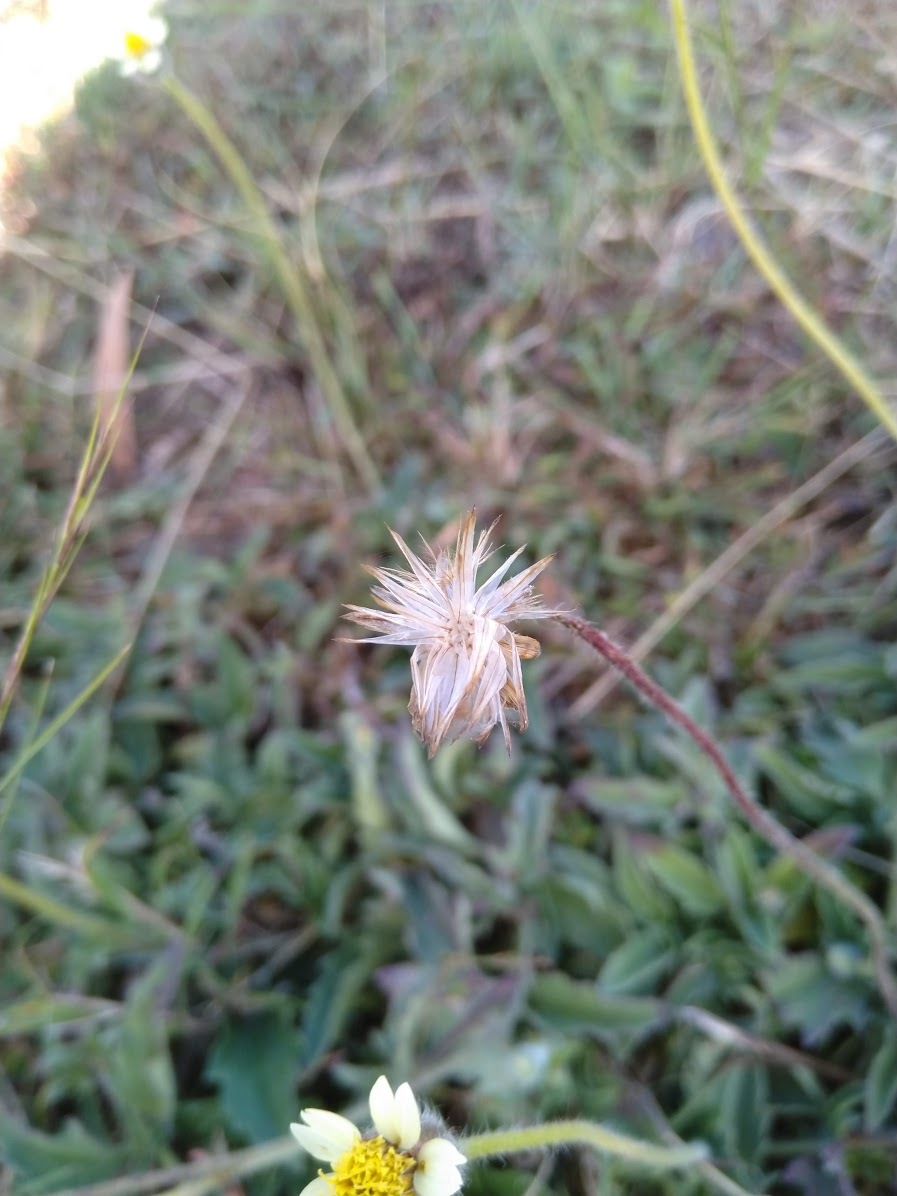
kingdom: Plantae
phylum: Tracheophyta
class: Magnoliopsida
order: Asterales
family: Asteraceae
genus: Tridax
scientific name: Tridax procumbens
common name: Coatbuttons
